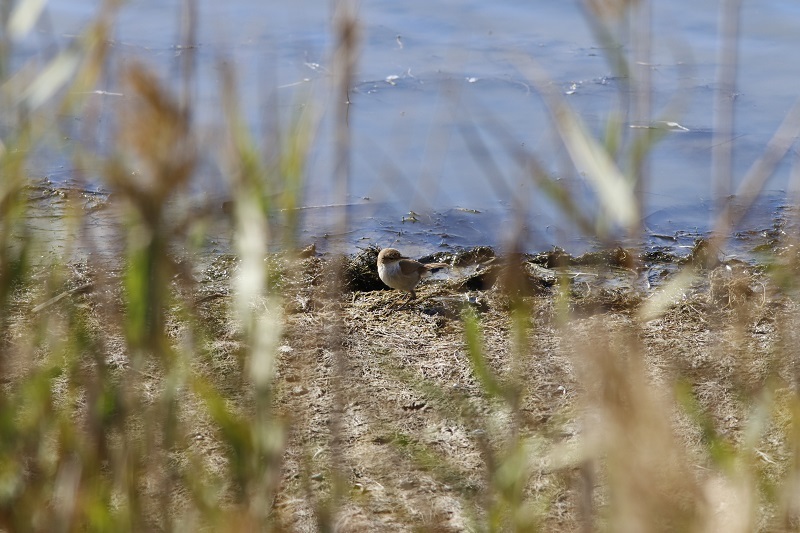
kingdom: Animalia
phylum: Chordata
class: Aves
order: Passeriformes
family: Acrocephalidae
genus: Acrocephalus
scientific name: Acrocephalus gracilirostris
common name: Lesser swamp warbler
